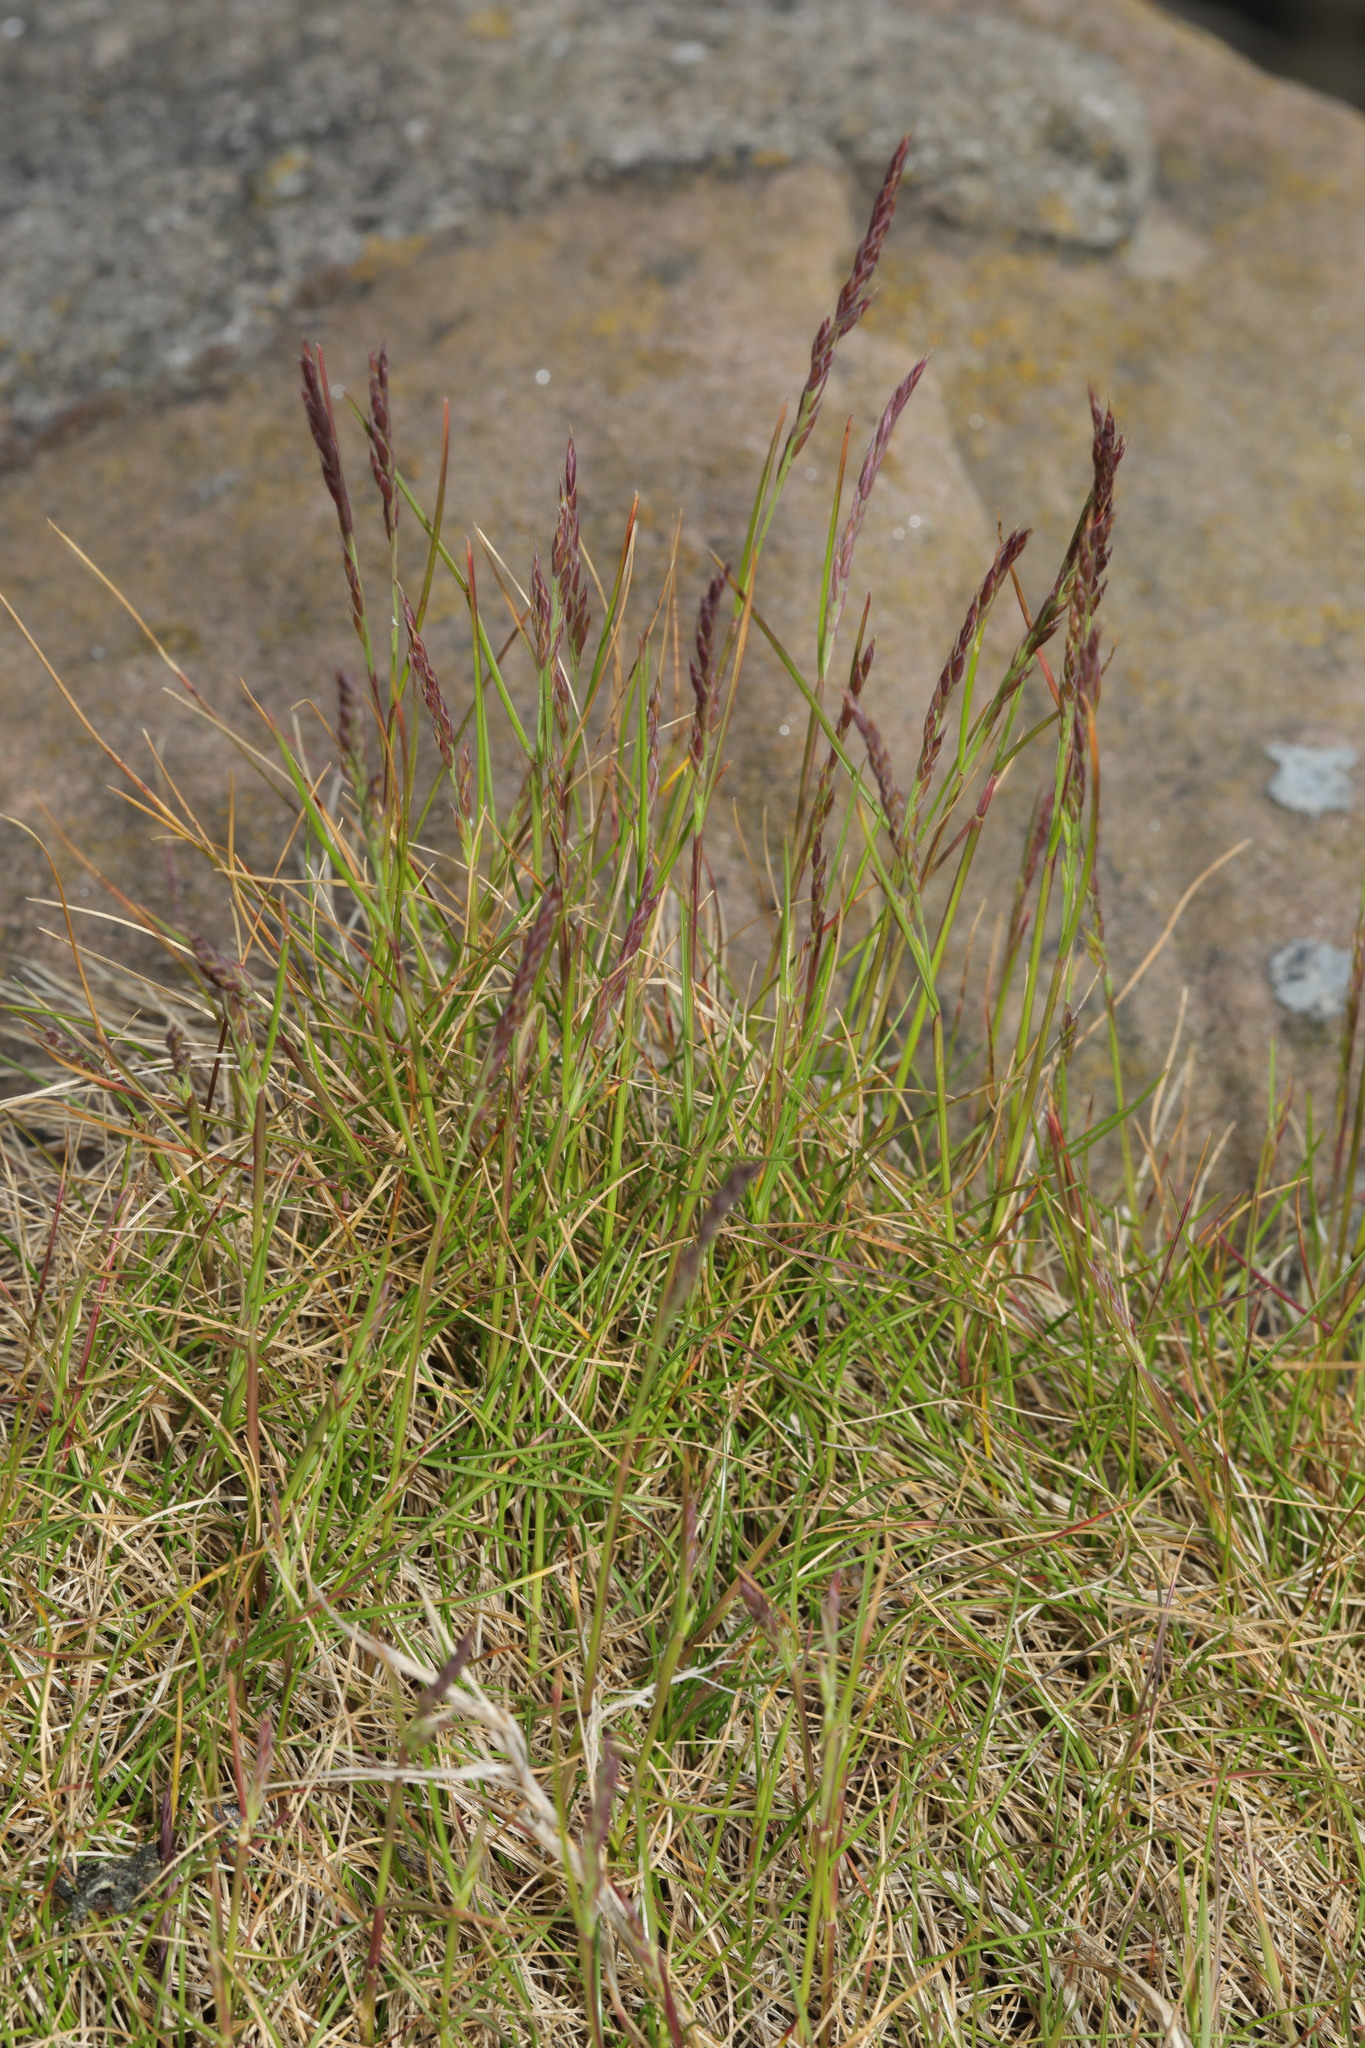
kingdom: Plantae
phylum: Tracheophyta
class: Liliopsida
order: Poales
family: Poaceae
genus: Festuca
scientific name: Festuca rubra
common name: Red fescue
